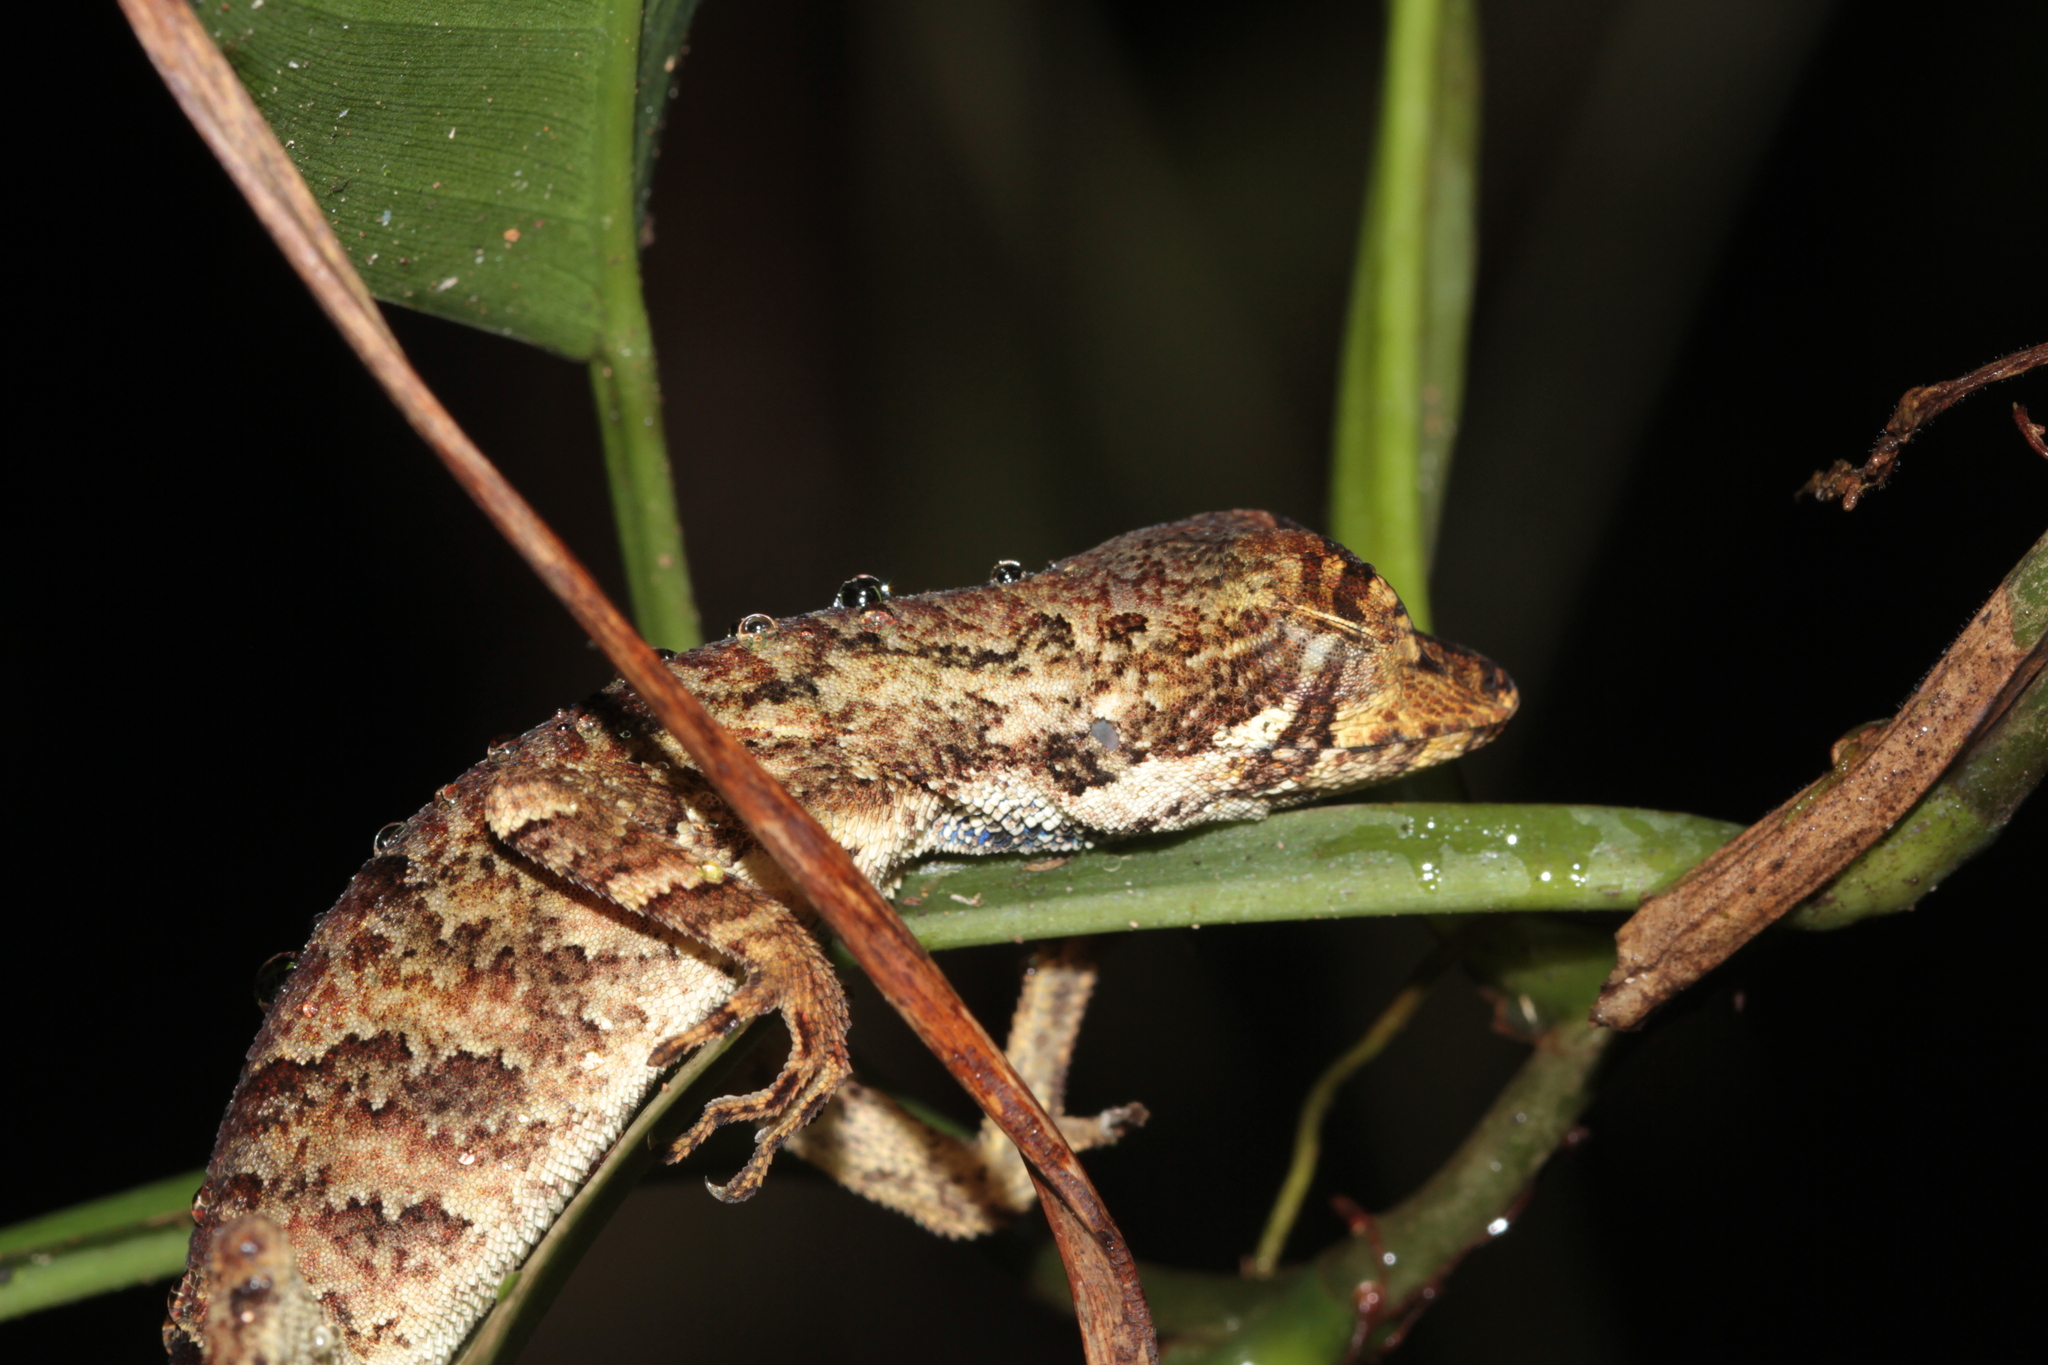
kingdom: Animalia
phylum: Chordata
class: Squamata
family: Dactyloidae
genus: Anolis
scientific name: Anolis chrysolepis
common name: Goldenscale anole
